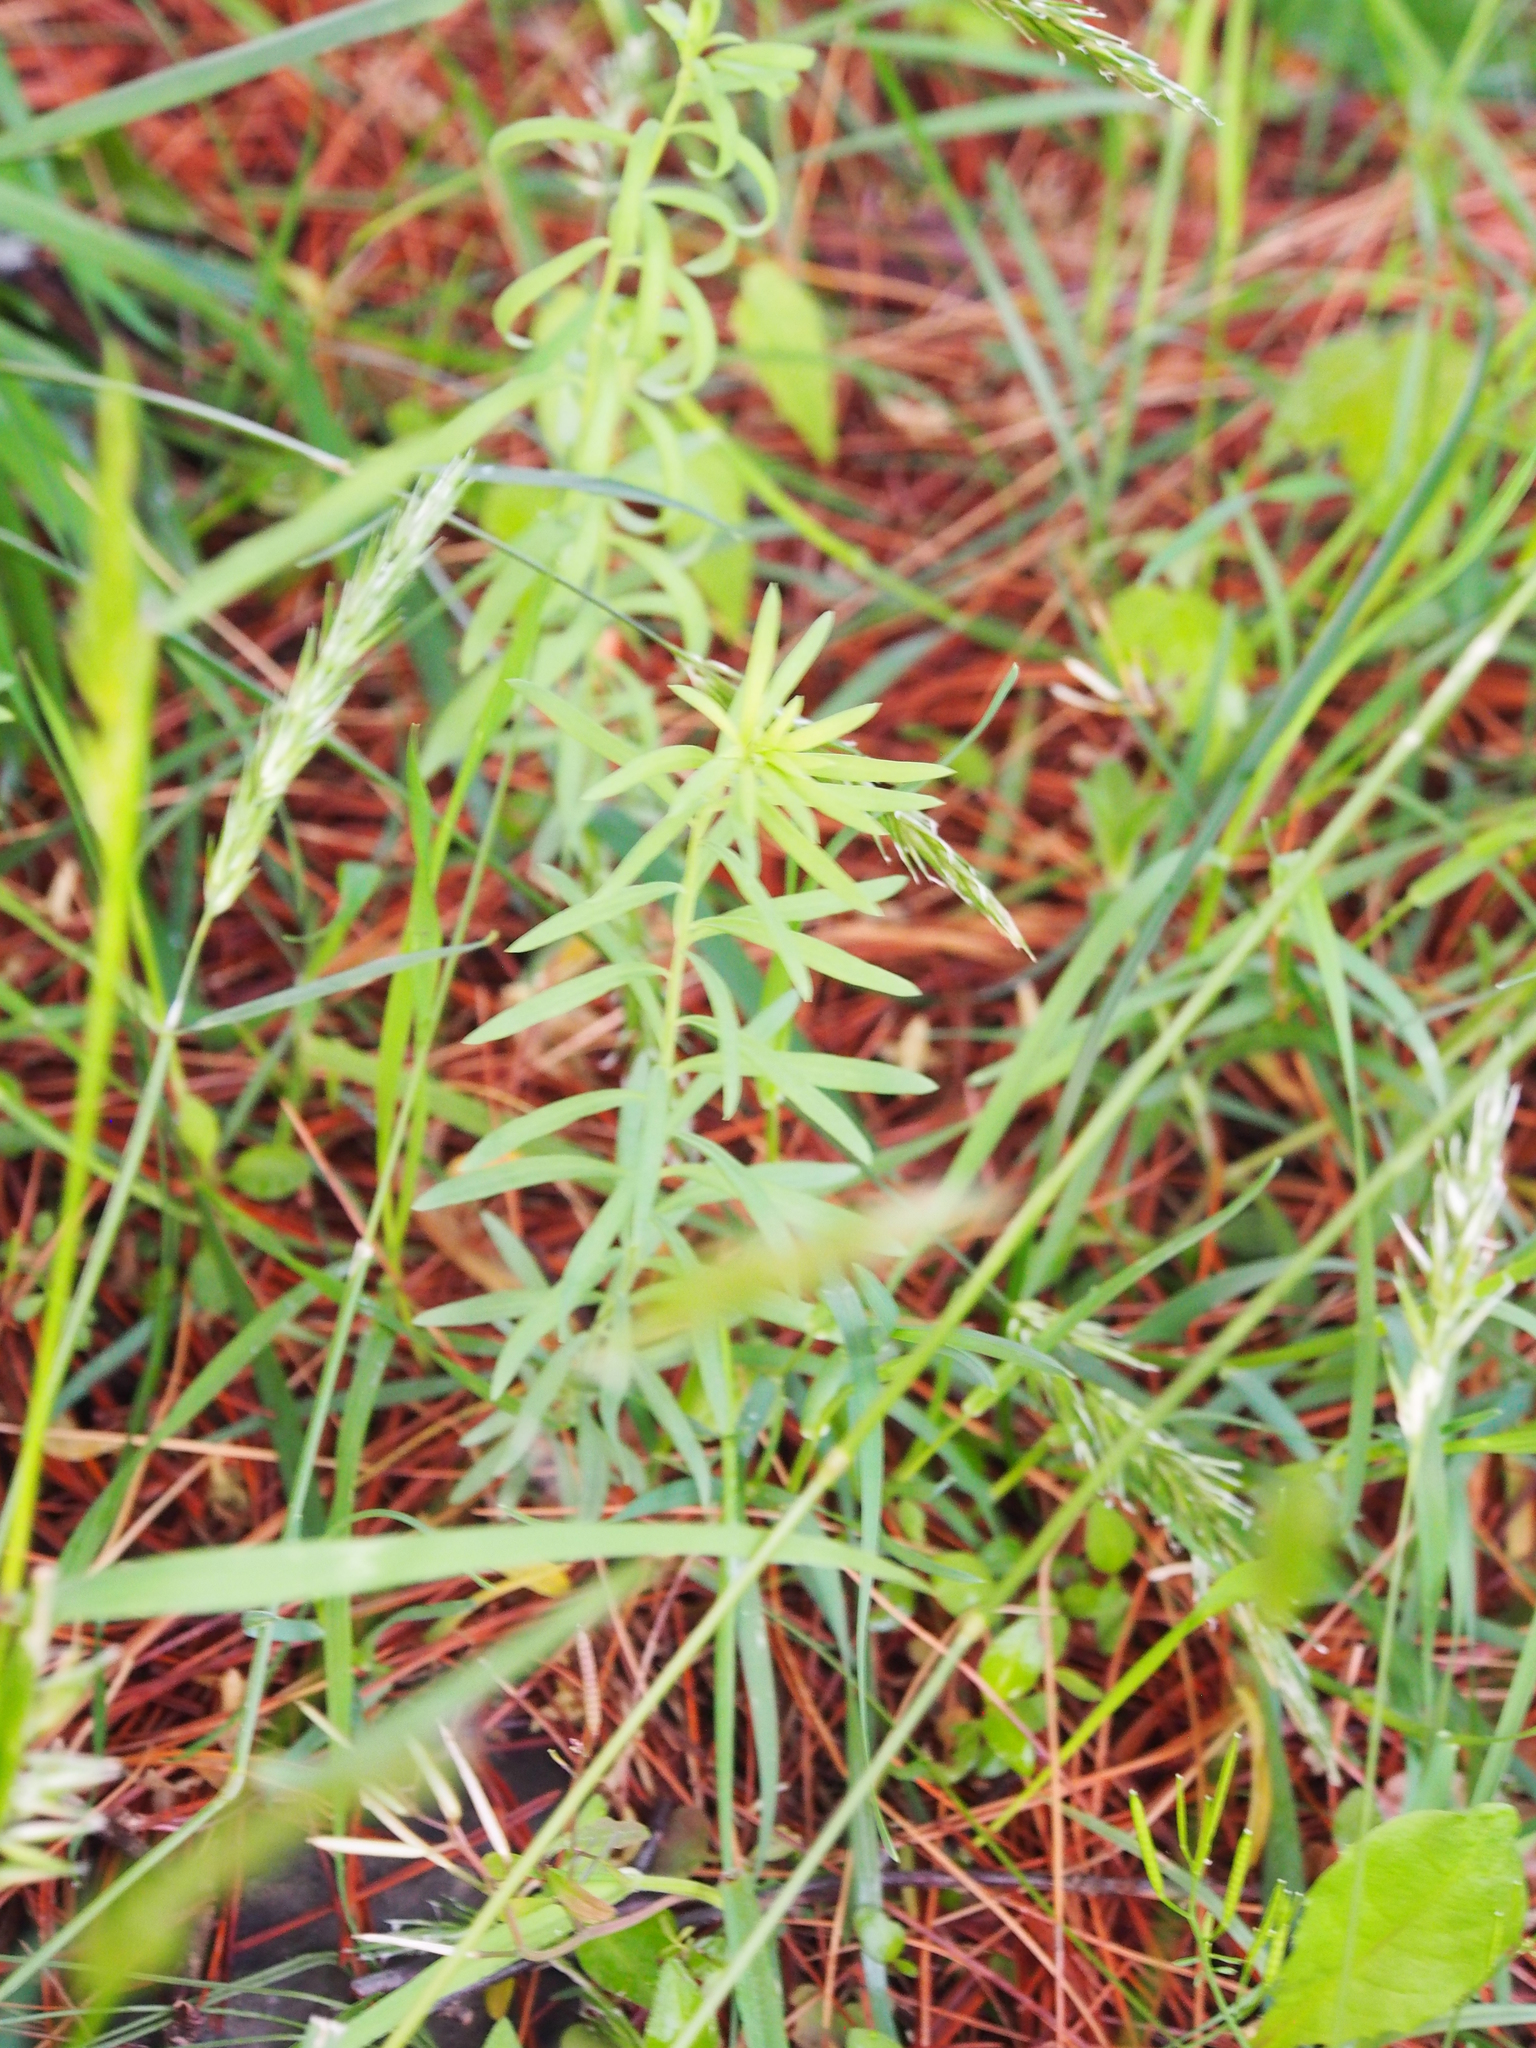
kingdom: Plantae
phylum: Tracheophyta
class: Magnoliopsida
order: Lamiales
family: Plantaginaceae
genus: Linaria
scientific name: Linaria vulgaris
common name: Butter and eggs
